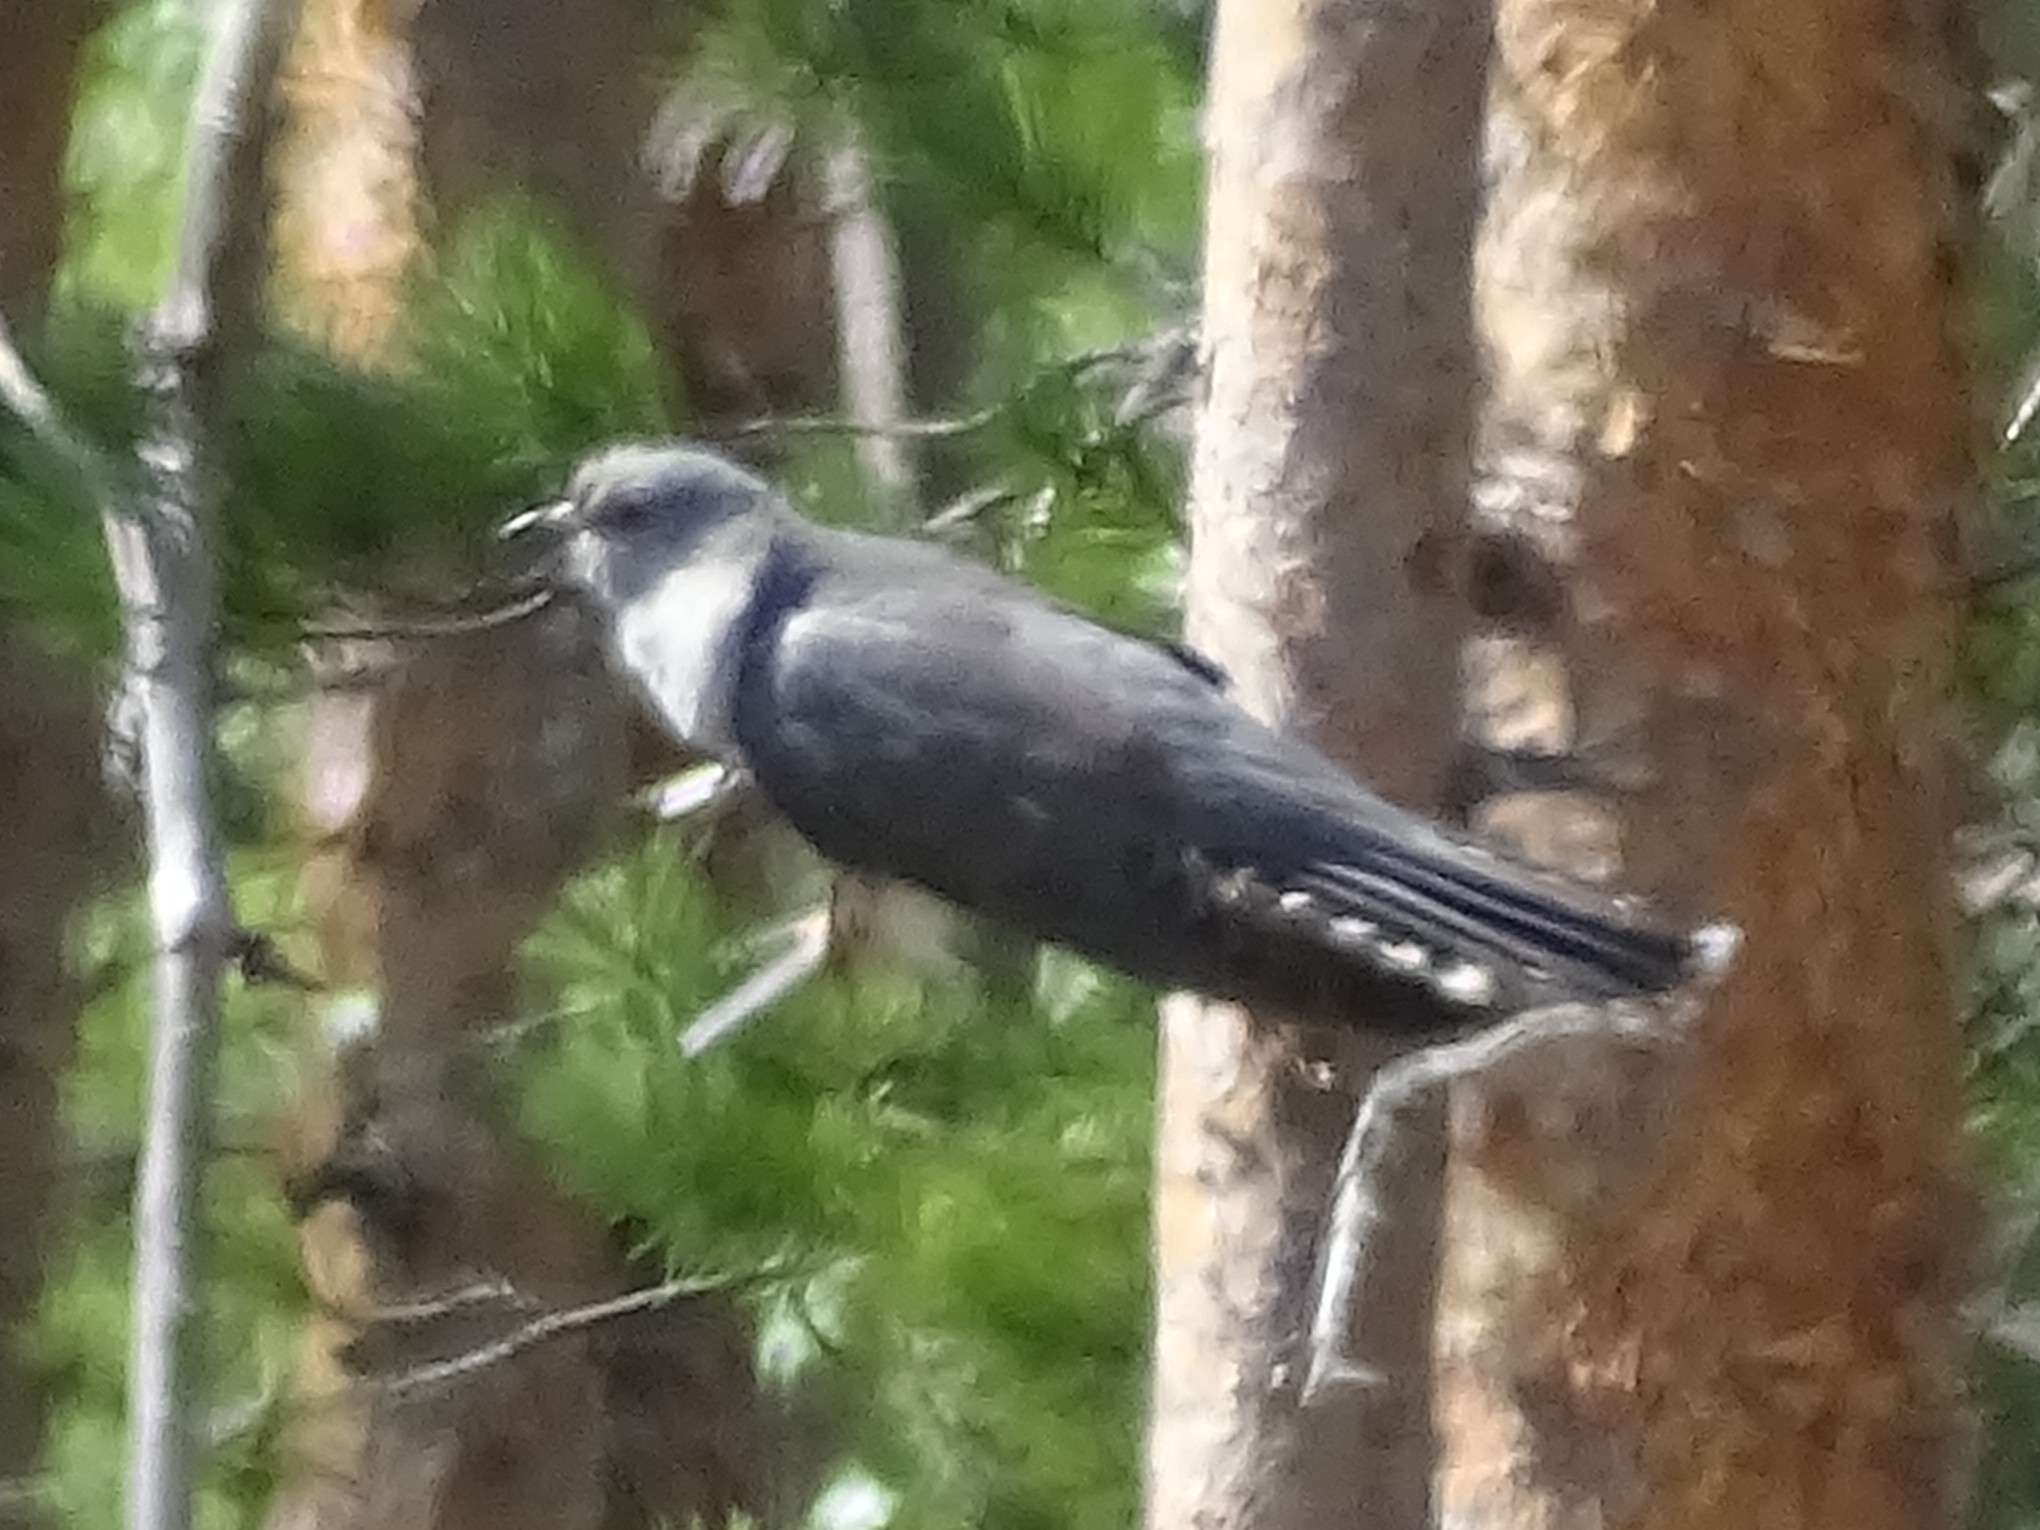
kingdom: Animalia
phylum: Chordata
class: Aves
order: Cuculiformes
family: Cuculidae
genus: Cuculus
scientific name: Cuculus canorus
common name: Common cuckoo
